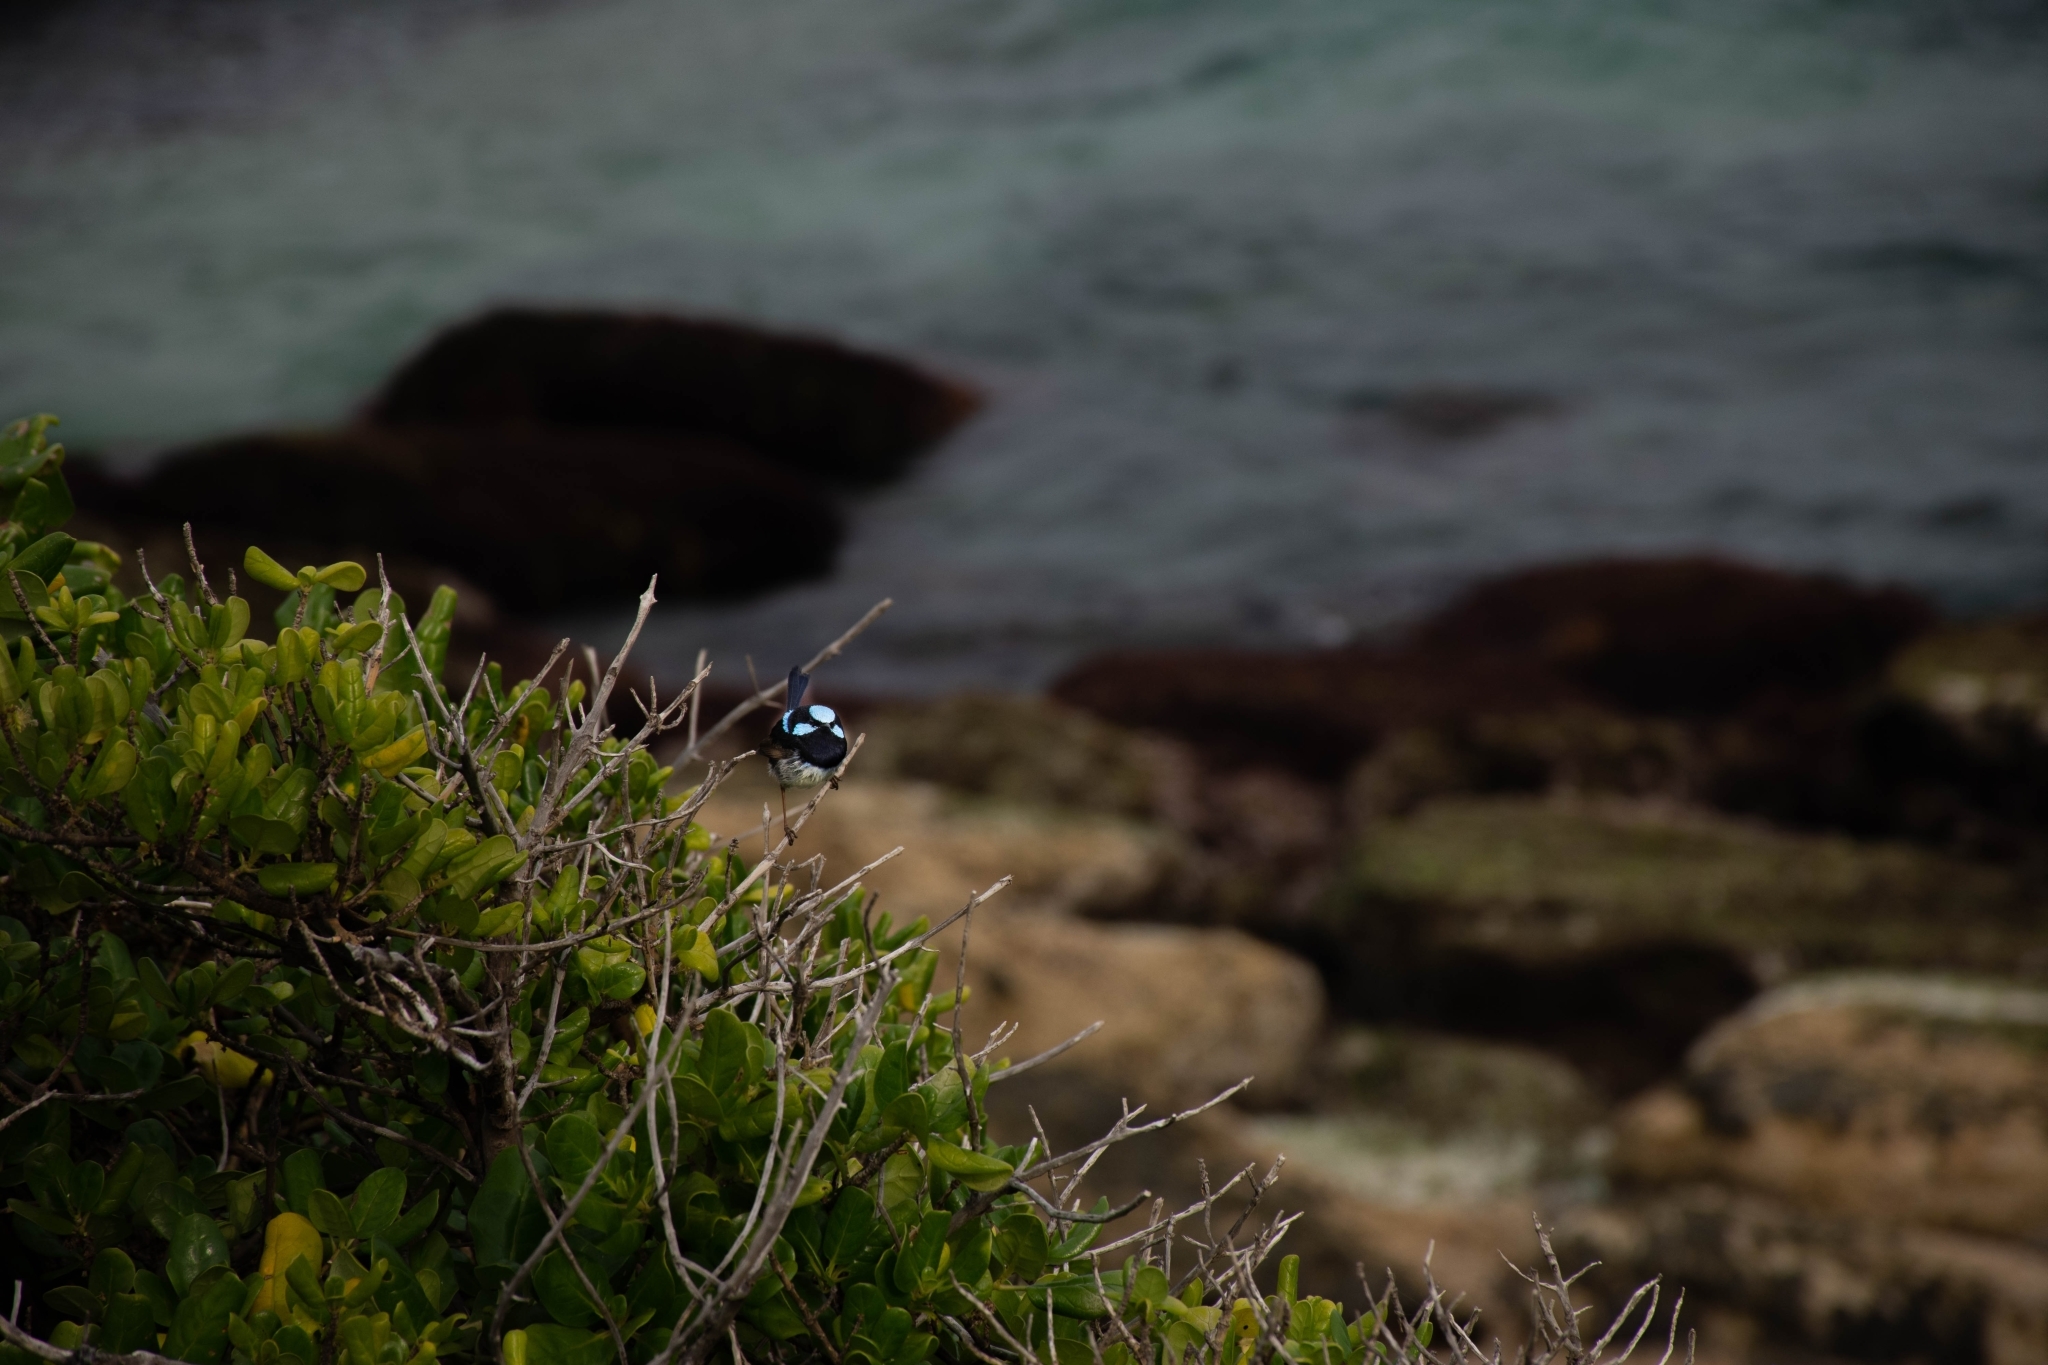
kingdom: Animalia
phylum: Chordata
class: Aves
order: Passeriformes
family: Maluridae
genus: Malurus
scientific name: Malurus cyaneus
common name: Superb fairywren
